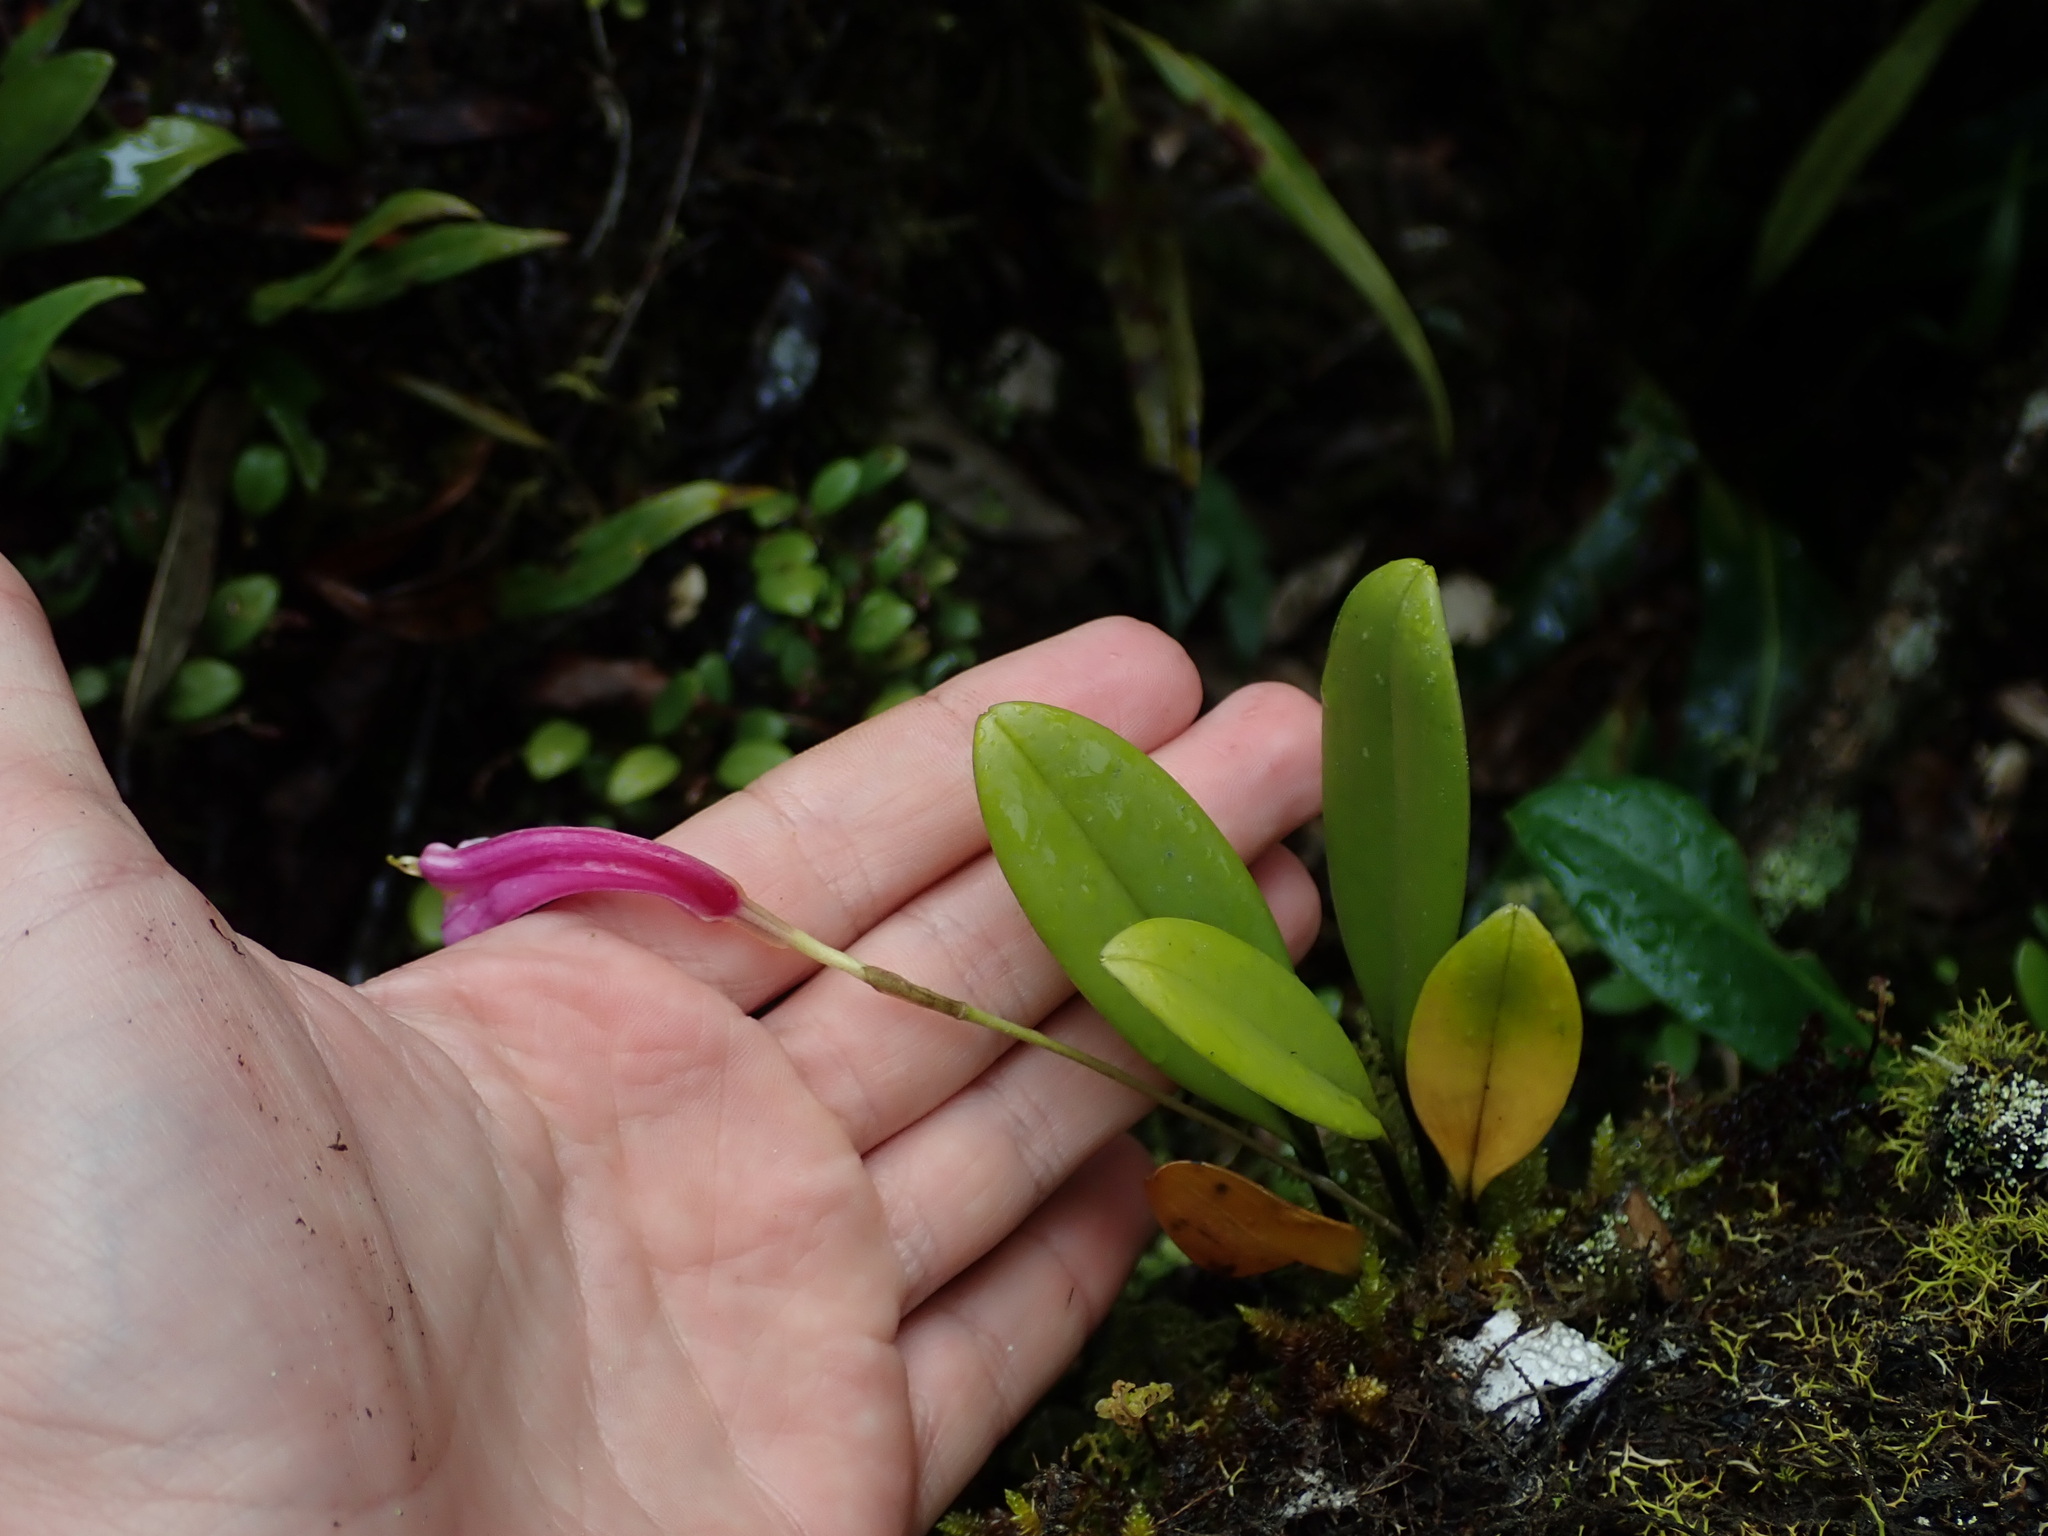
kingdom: Plantae
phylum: Tracheophyta
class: Liliopsida
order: Asparagales
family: Orchidaceae
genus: Masdevallia
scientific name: Masdevallia notosibirica
